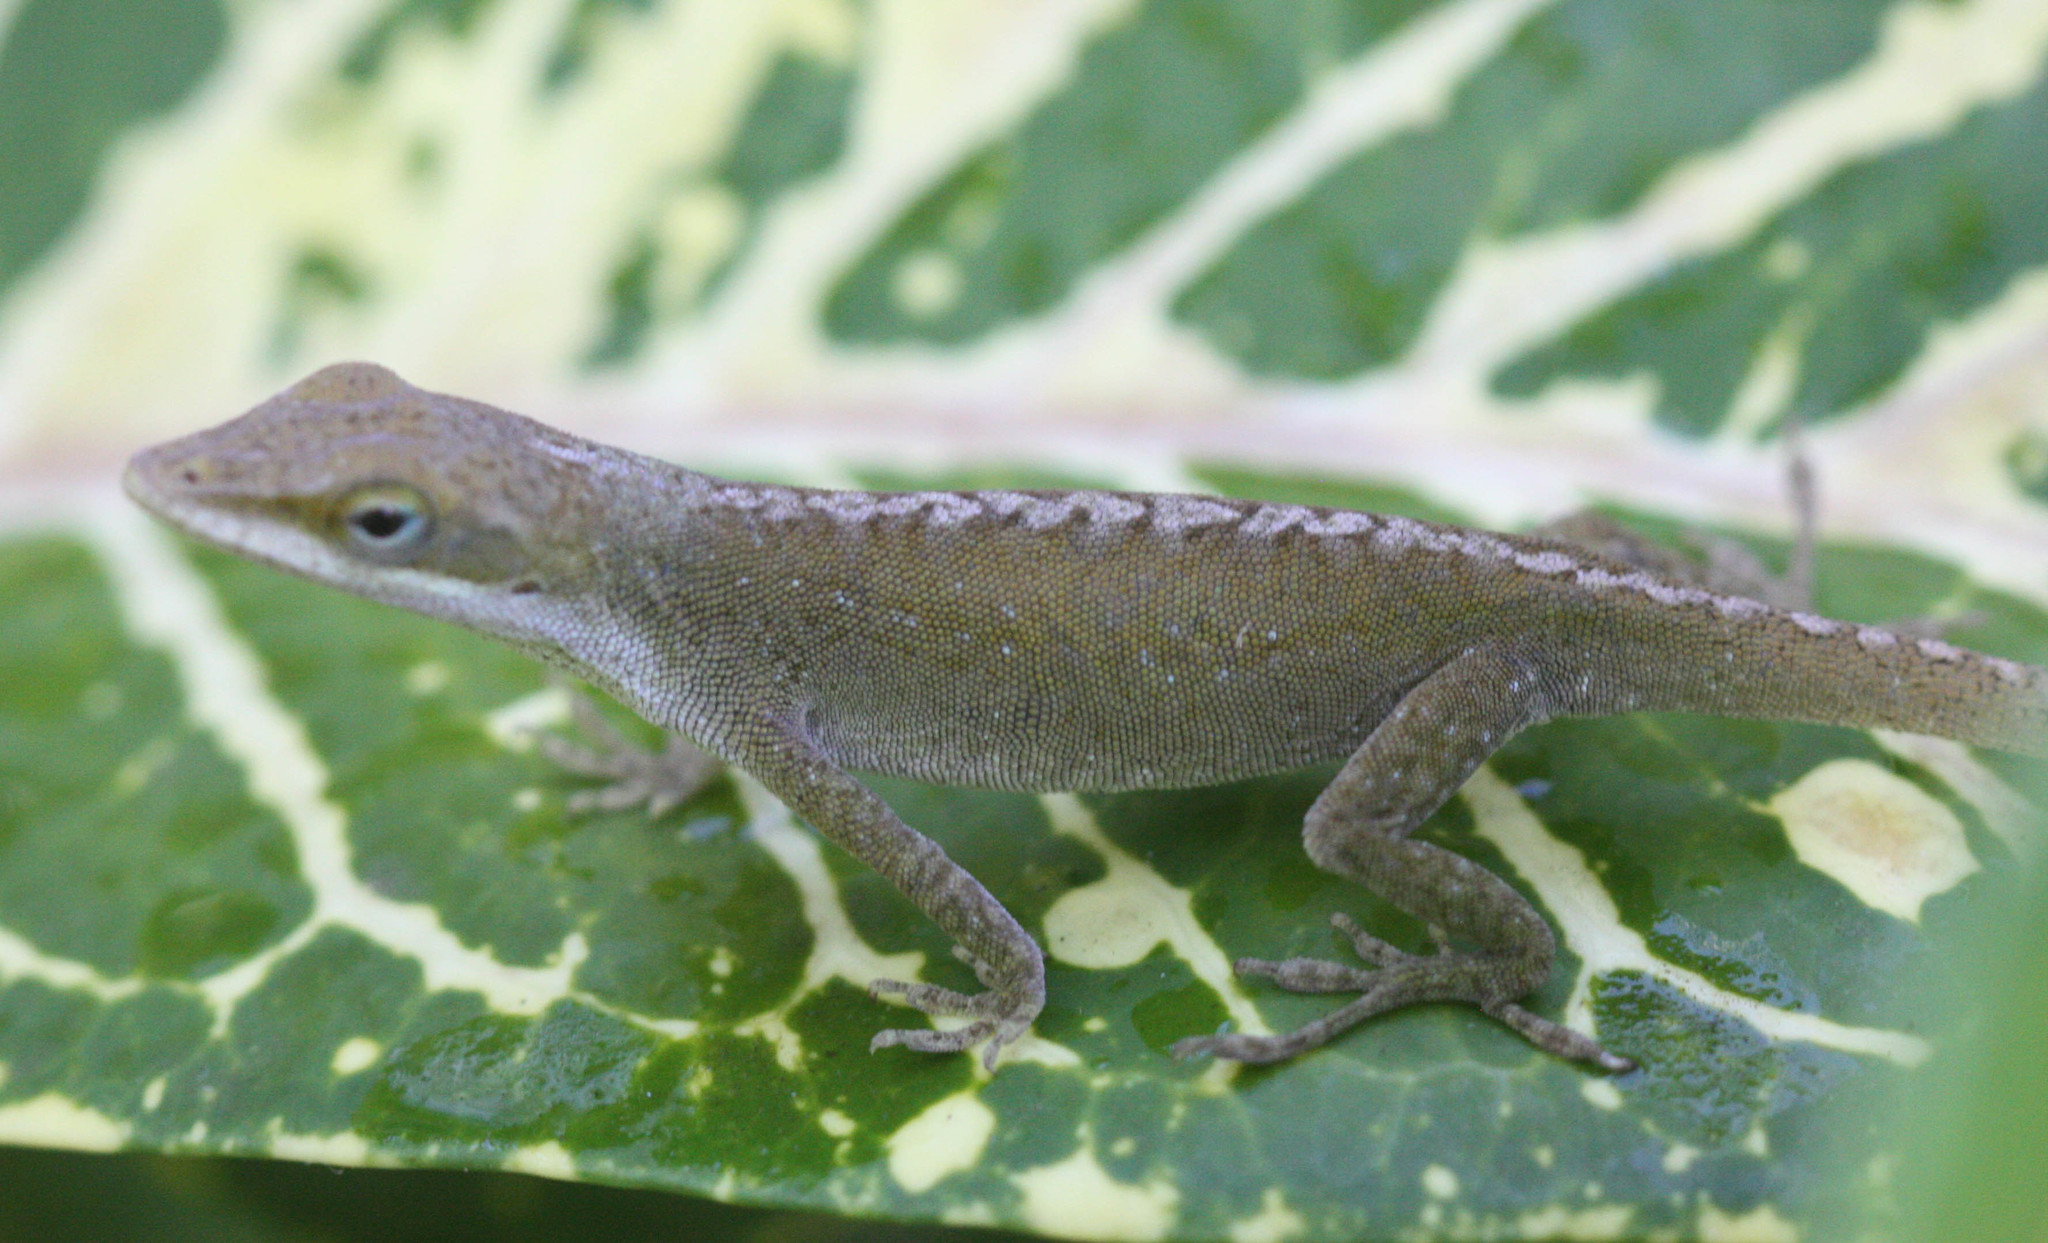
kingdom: Animalia
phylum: Chordata
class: Squamata
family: Dactyloidae
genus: Anolis
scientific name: Anolis carolinensis
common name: Green anole
